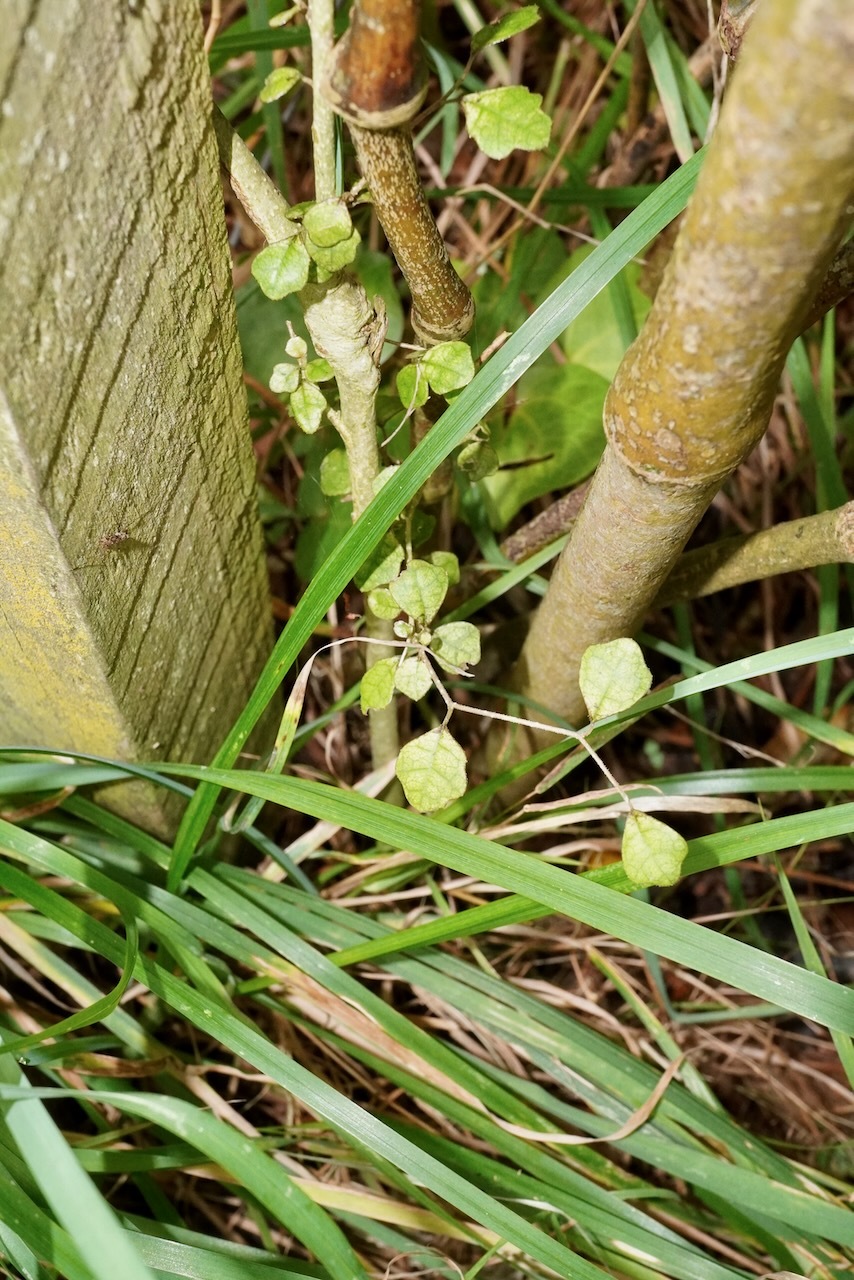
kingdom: Plantae
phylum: Tracheophyta
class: Magnoliopsida
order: Apiales
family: Pennantiaceae
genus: Pennantia
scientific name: Pennantia corymbosa
